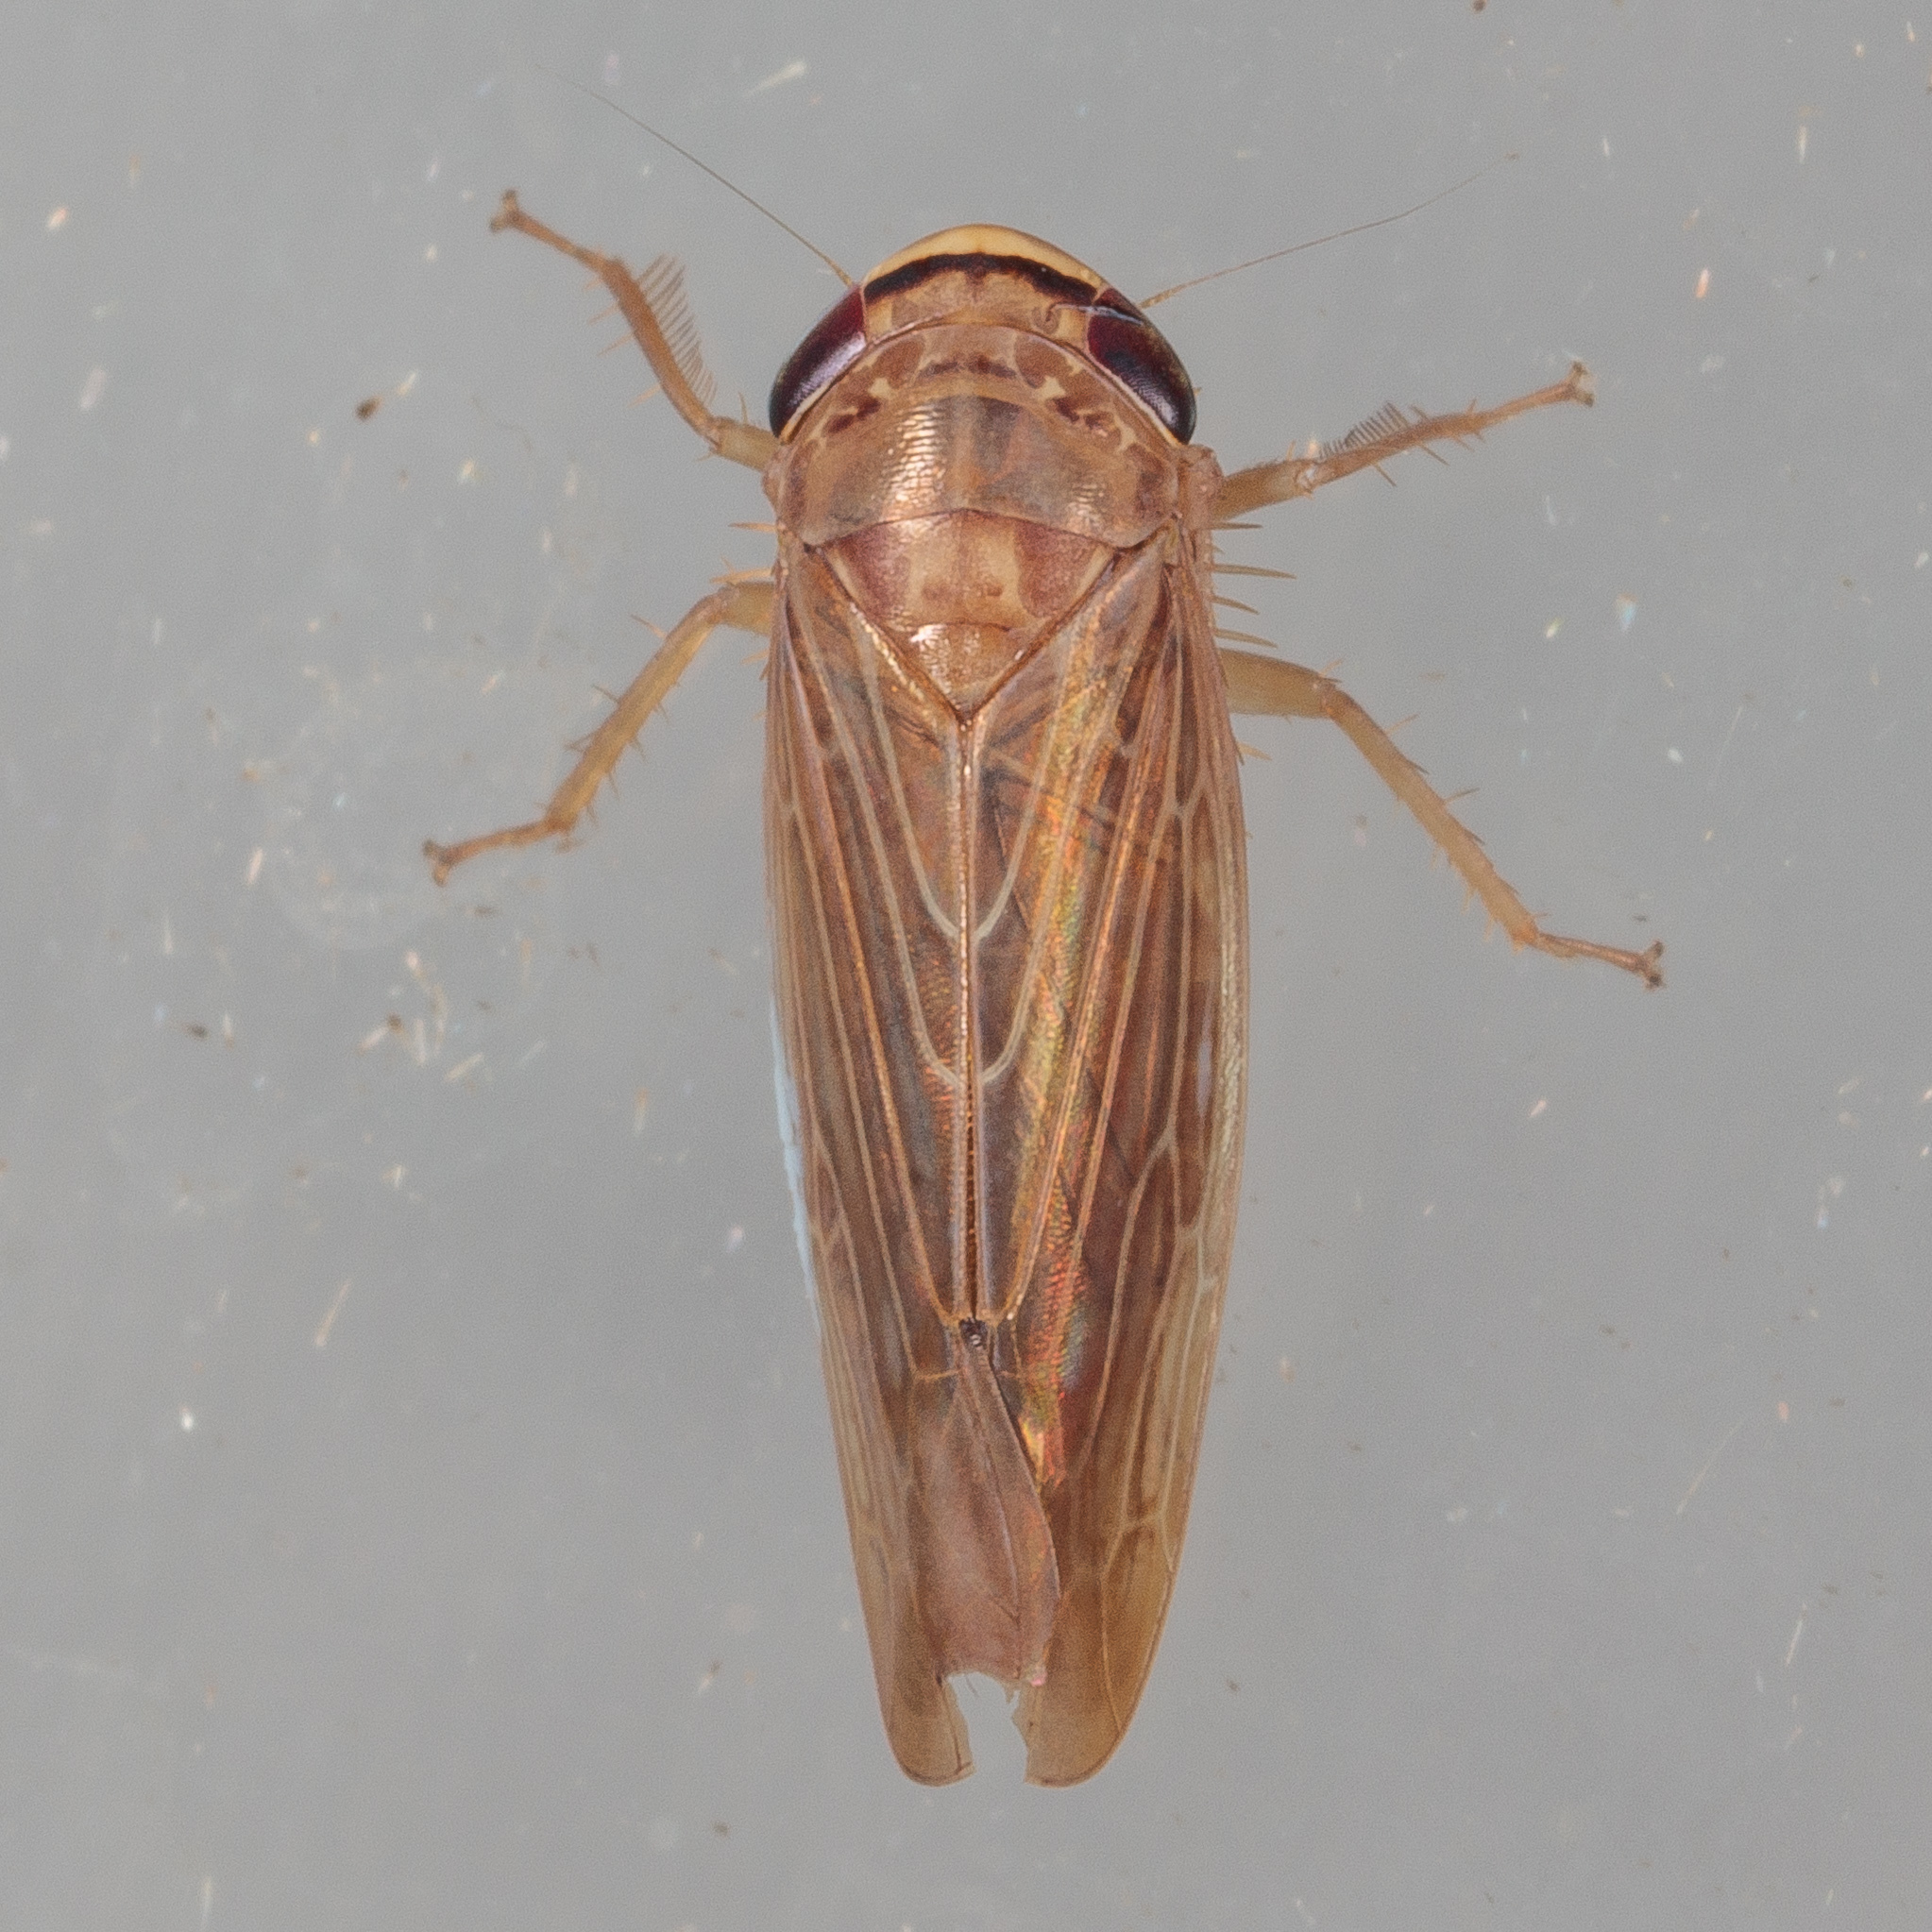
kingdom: Animalia
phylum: Arthropoda
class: Insecta
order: Hemiptera
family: Cicadellidae
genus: Chlorotettix
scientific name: Chlorotettix necopinus
